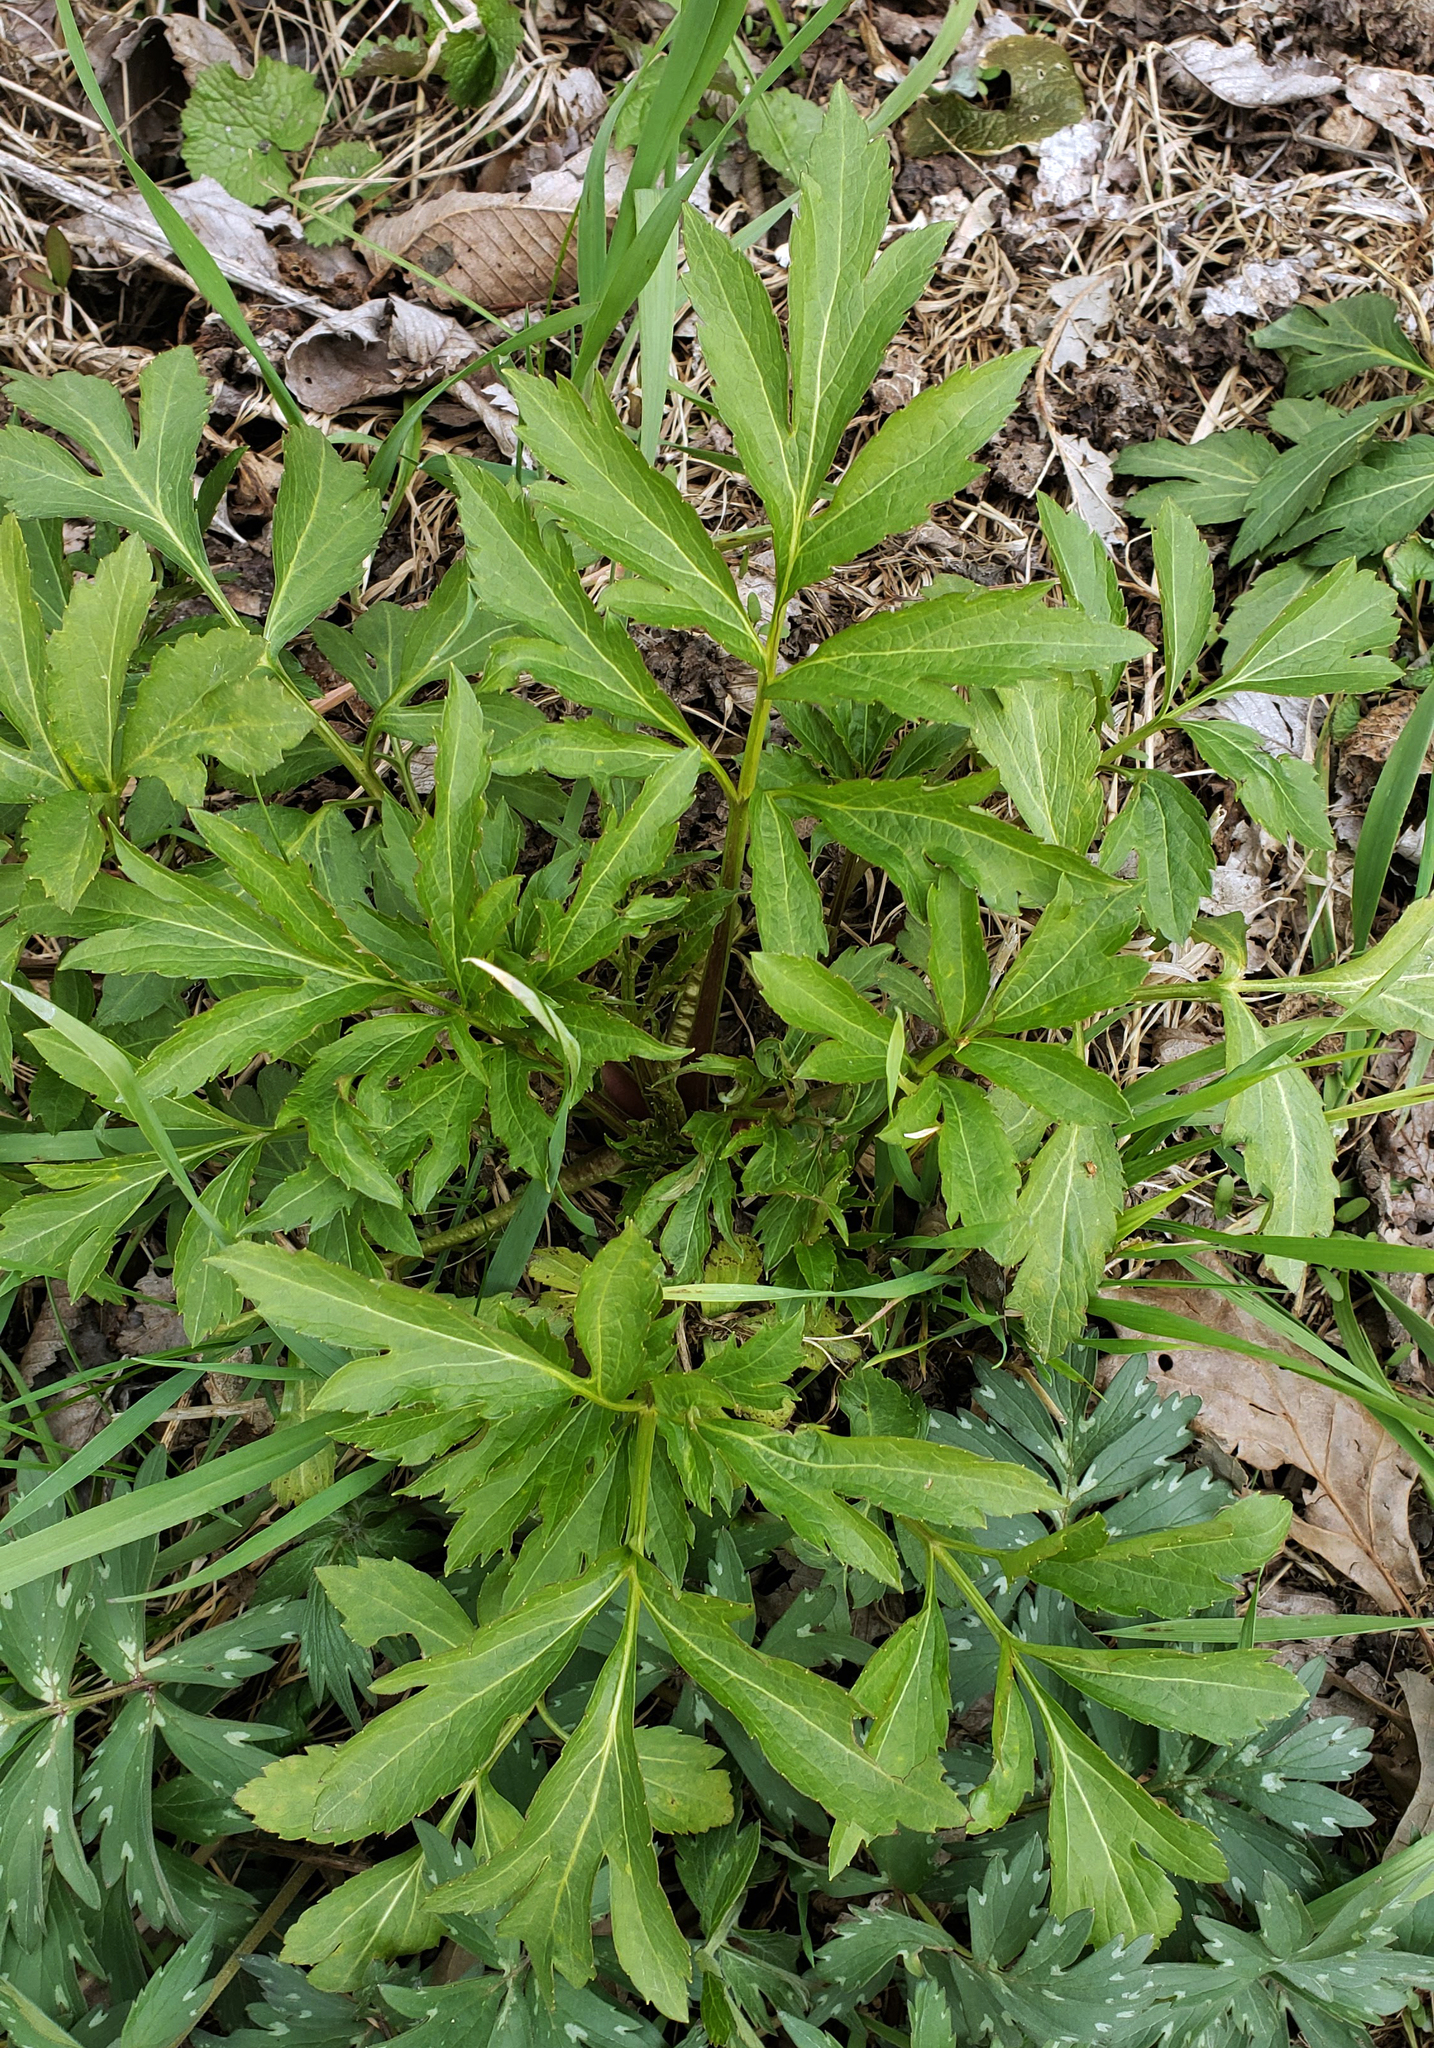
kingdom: Plantae
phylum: Tracheophyta
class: Magnoliopsida
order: Asterales
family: Asteraceae
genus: Rudbeckia
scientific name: Rudbeckia laciniata
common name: Coneflower
